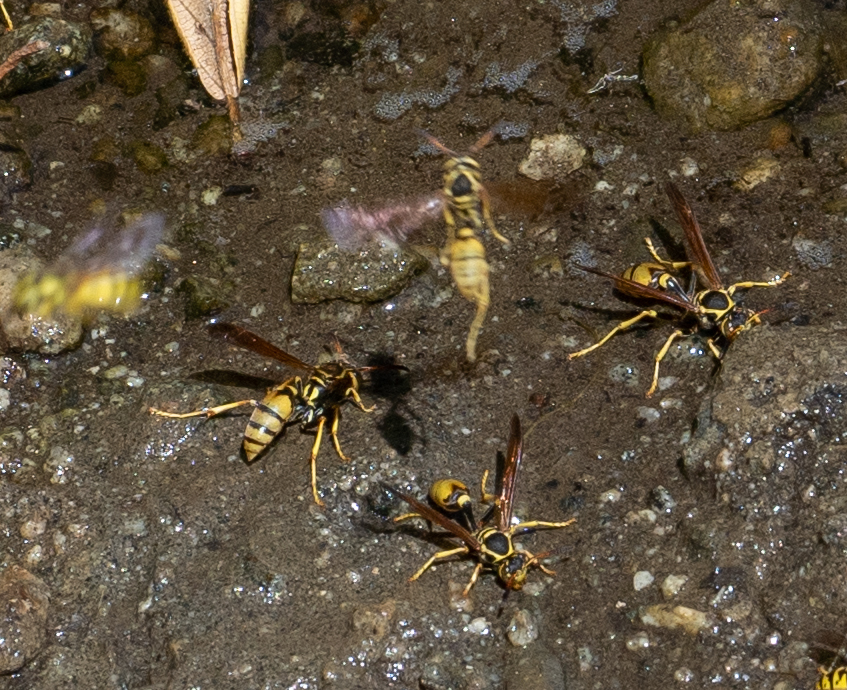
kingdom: Animalia
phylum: Arthropoda
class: Insecta
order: Hymenoptera
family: Vespidae
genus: Mischocyttarus
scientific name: Mischocyttarus flavitarsis
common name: Wasp
